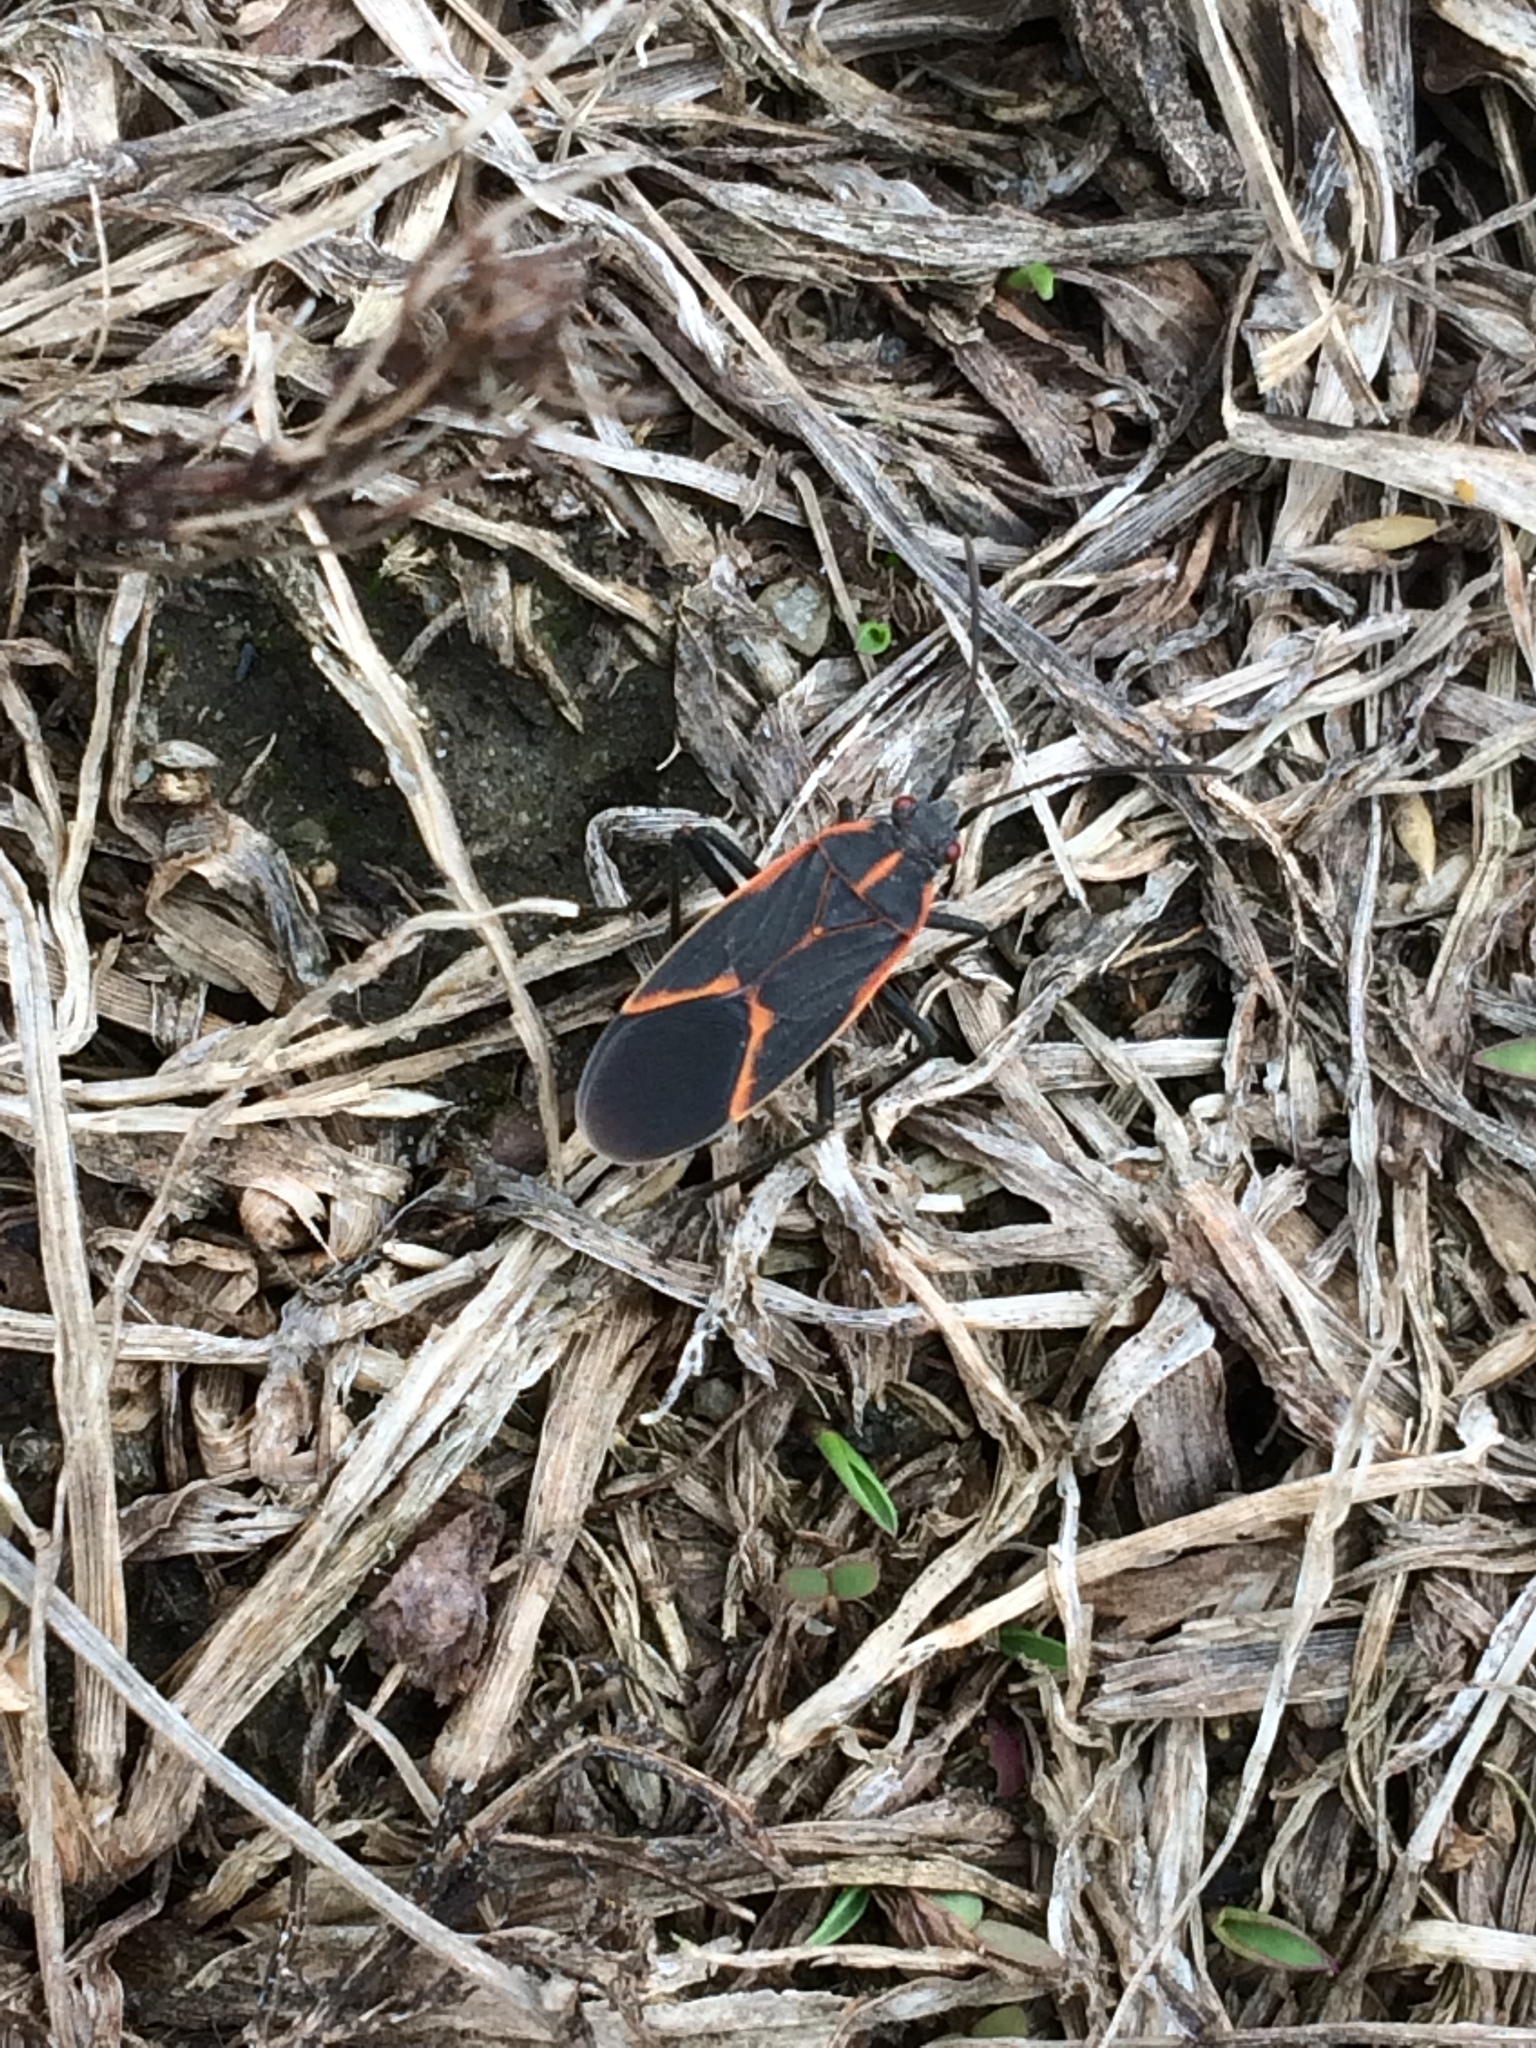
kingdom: Animalia
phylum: Arthropoda
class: Insecta
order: Hemiptera
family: Rhopalidae
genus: Boisea
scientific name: Boisea trivittata
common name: Boxelder bug
